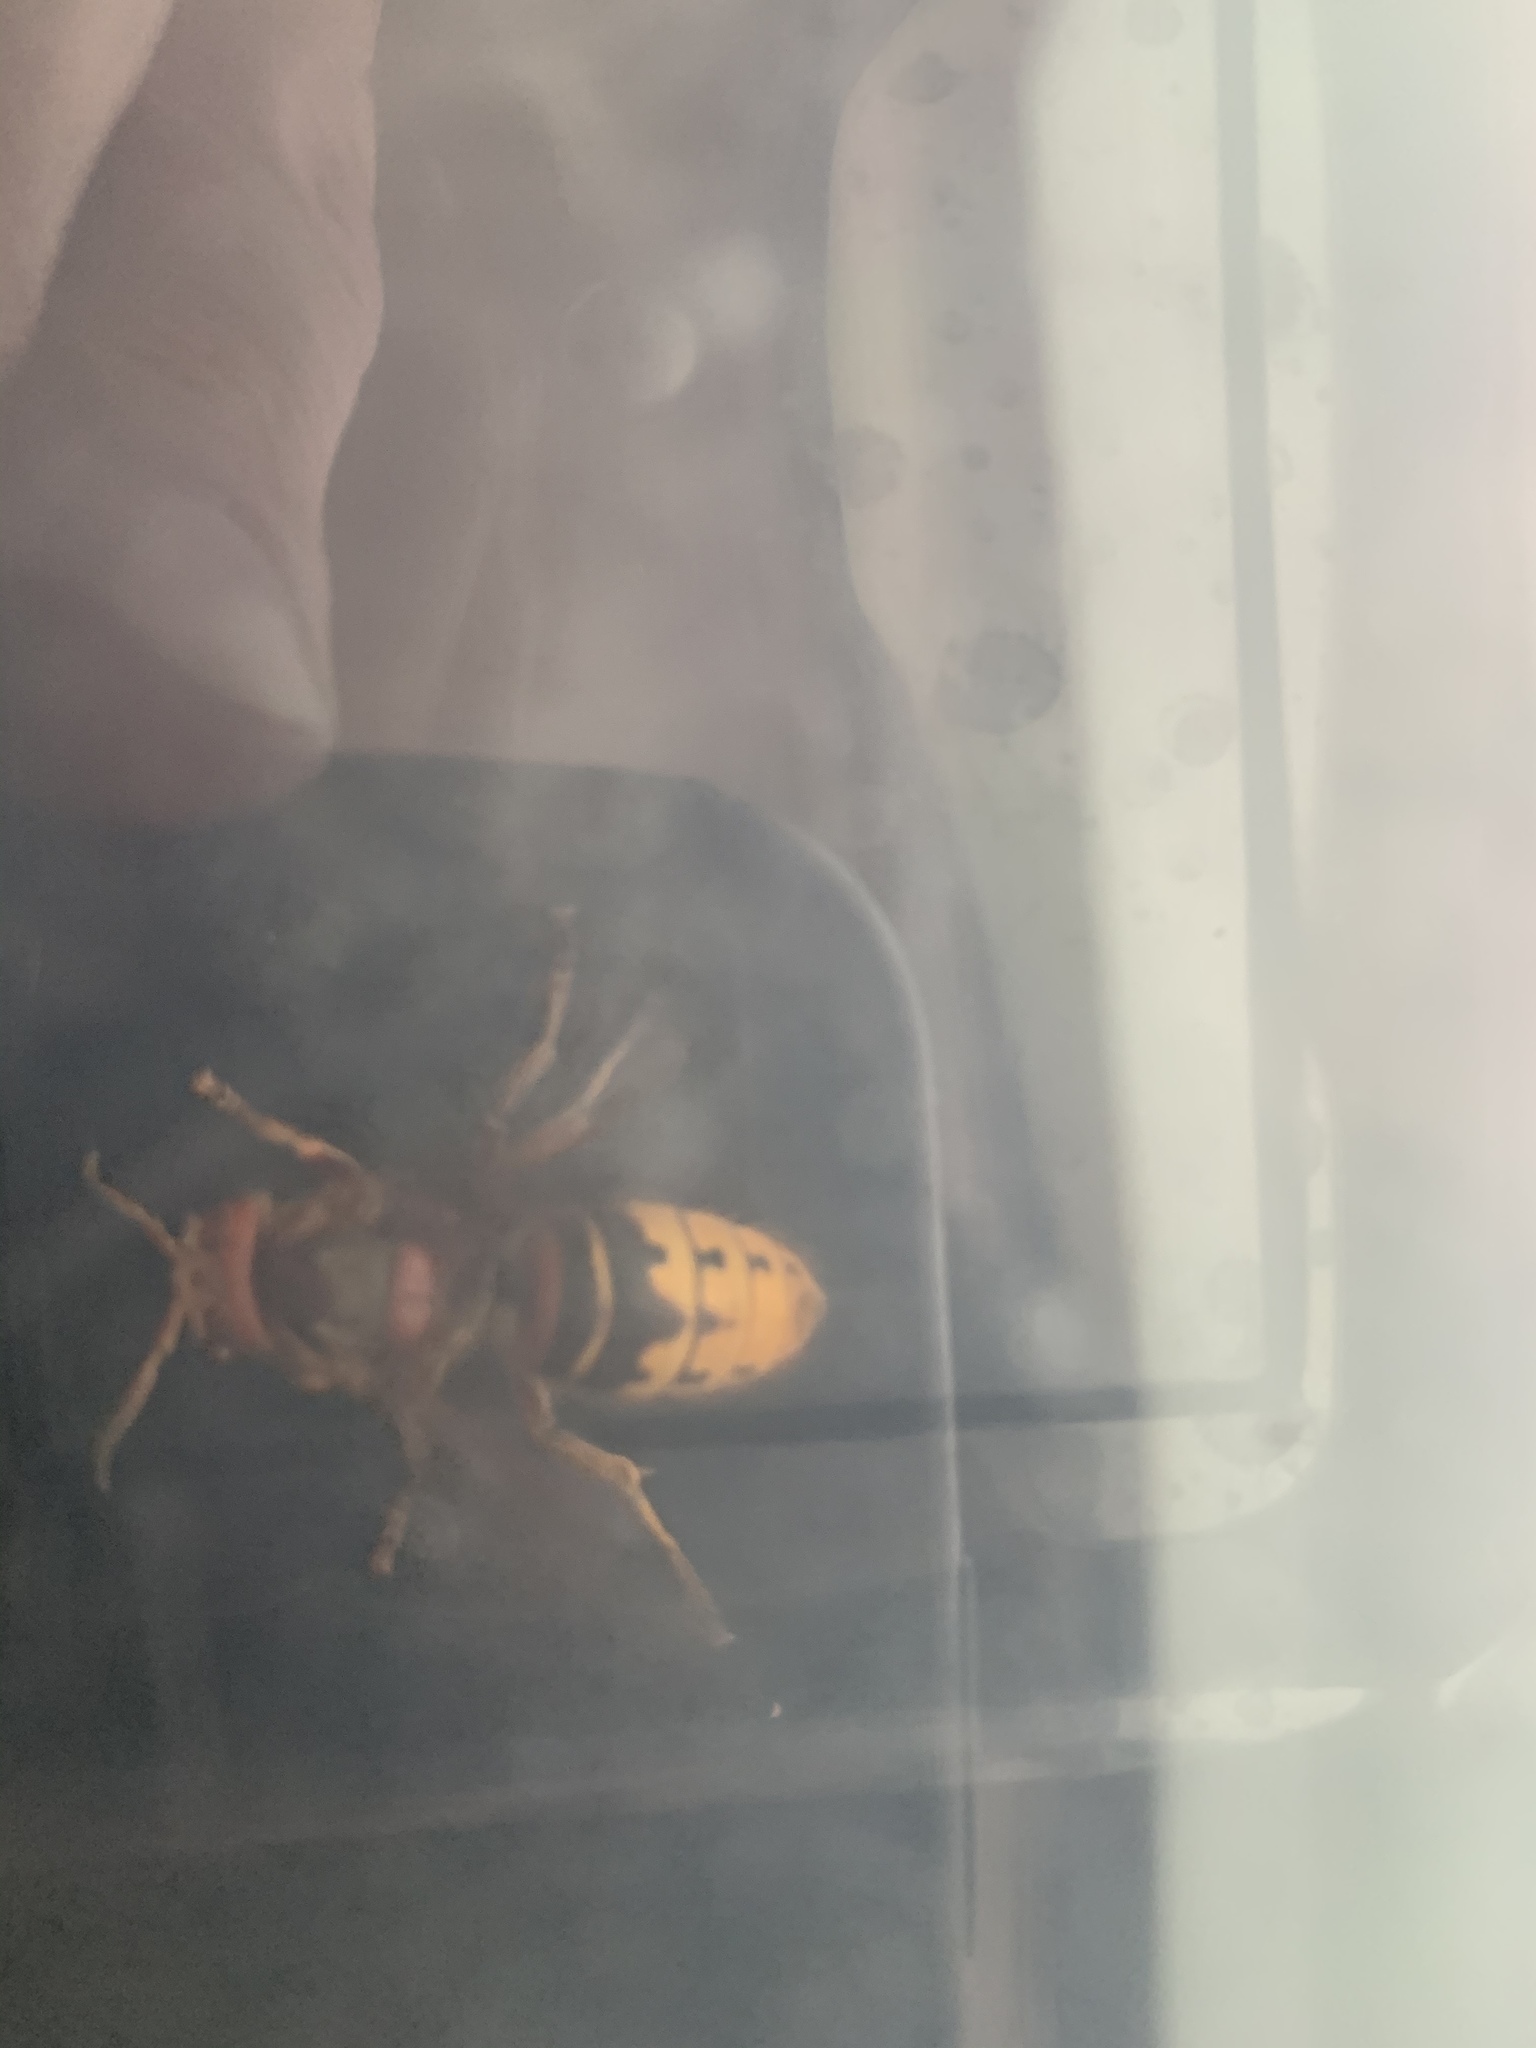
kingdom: Animalia
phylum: Arthropoda
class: Insecta
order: Hymenoptera
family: Vespidae
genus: Vespa
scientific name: Vespa crabro
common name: Hornet
